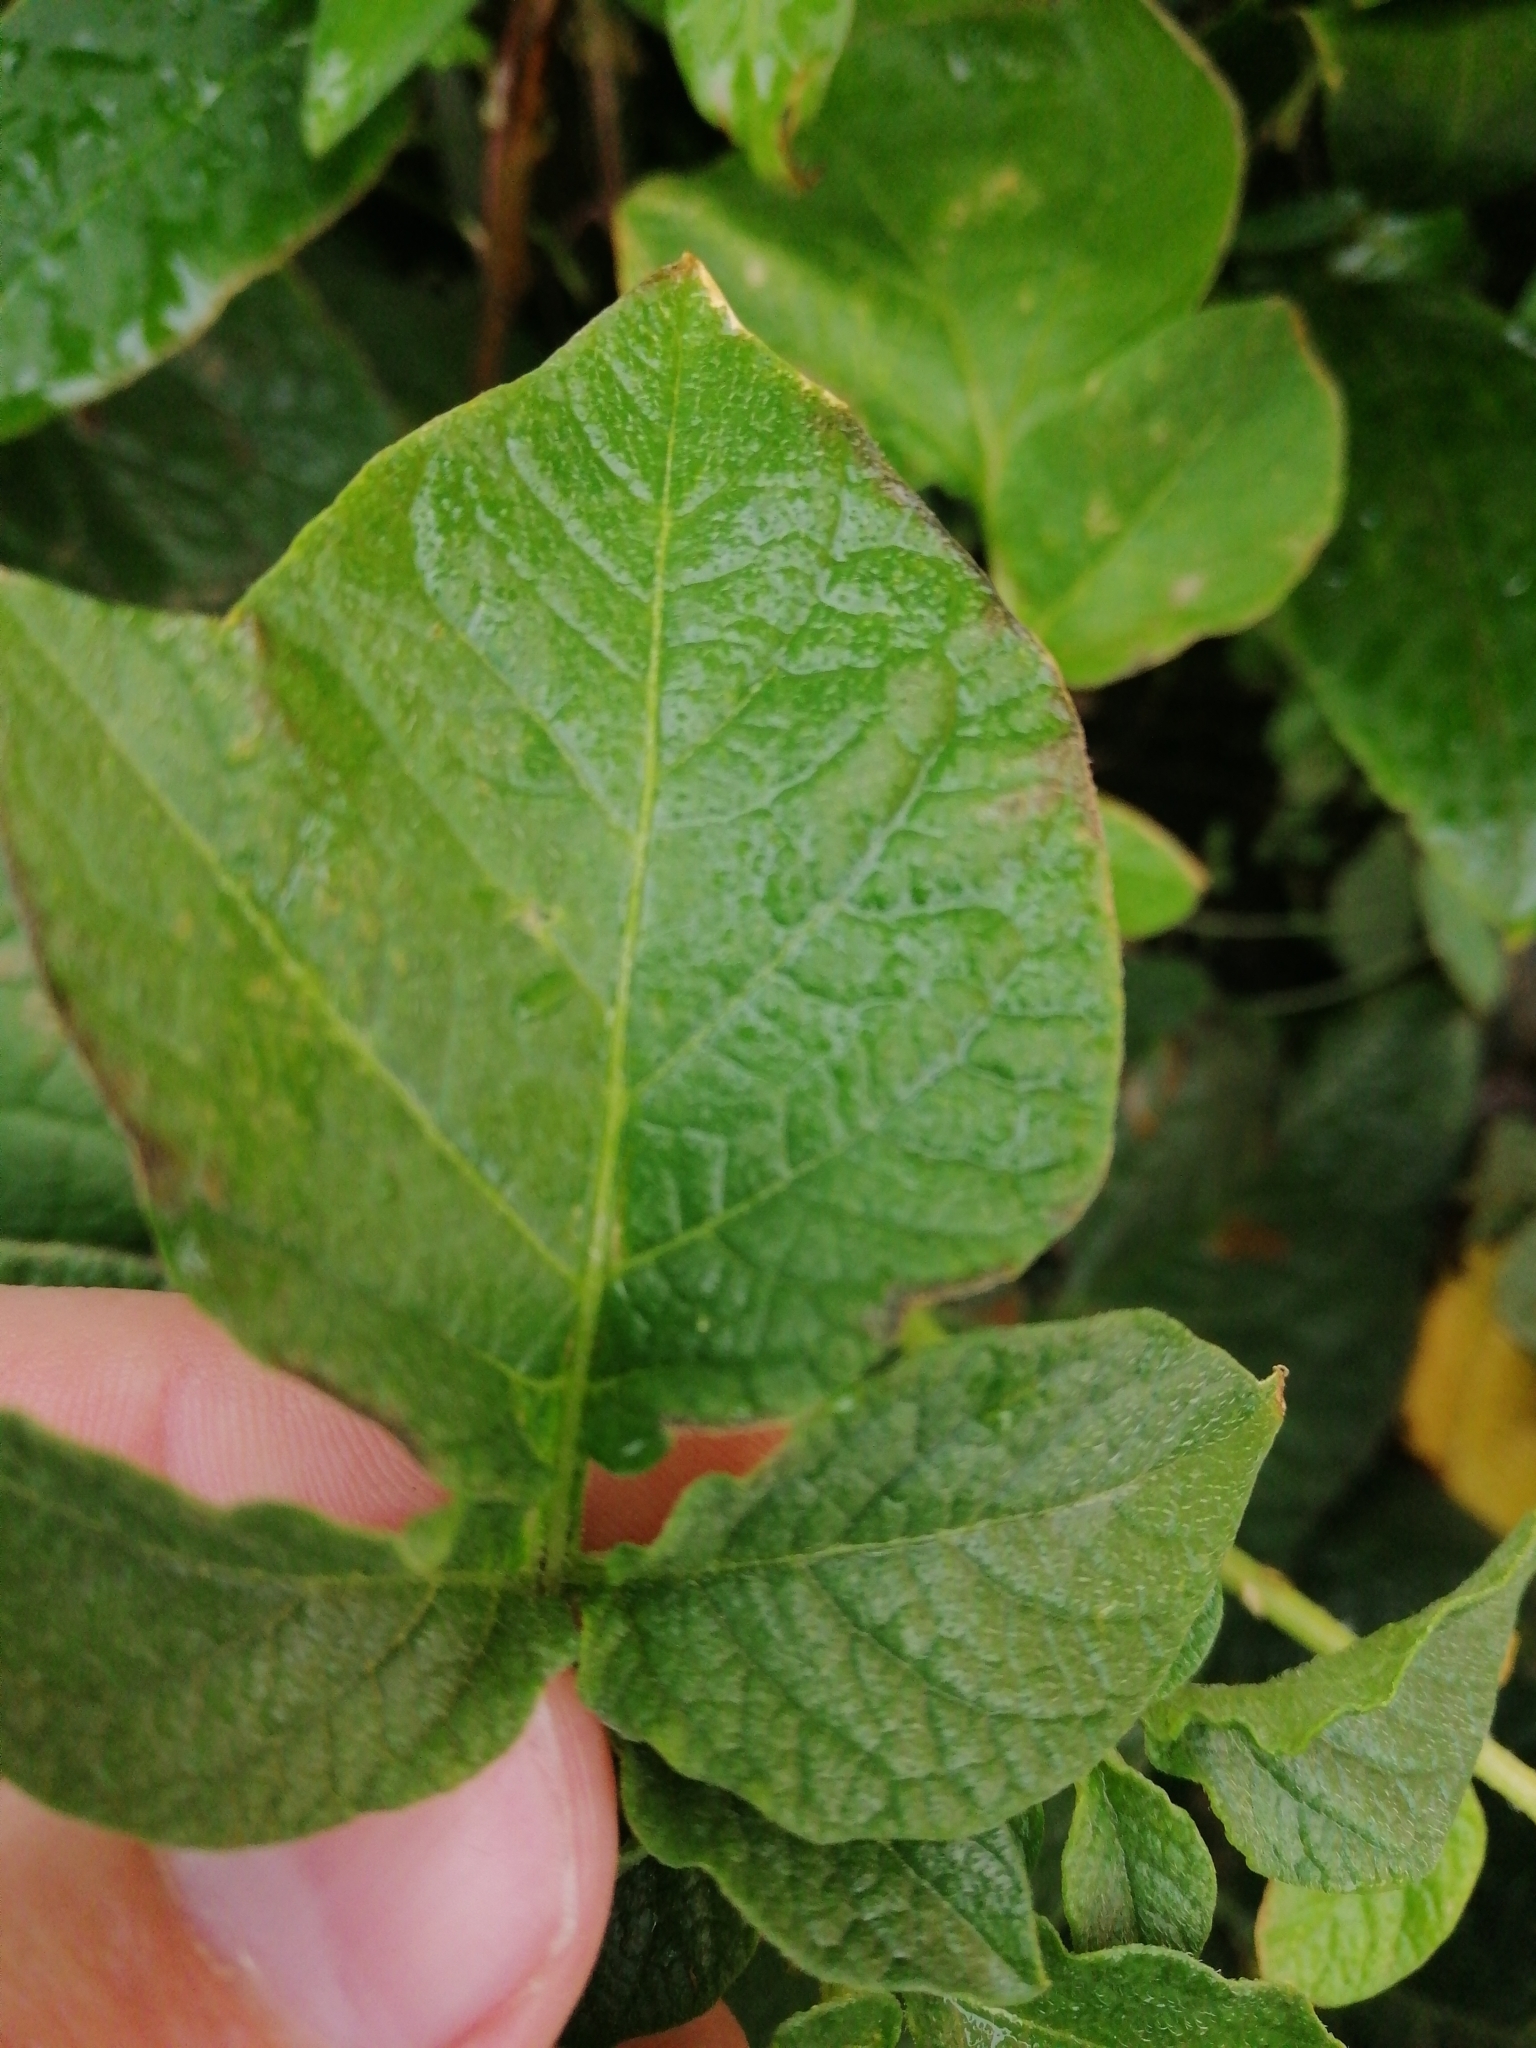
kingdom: Plantae
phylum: Tracheophyta
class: Magnoliopsida
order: Solanales
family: Solanaceae
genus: Solanum
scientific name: Solanum tuberosum
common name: Potato
